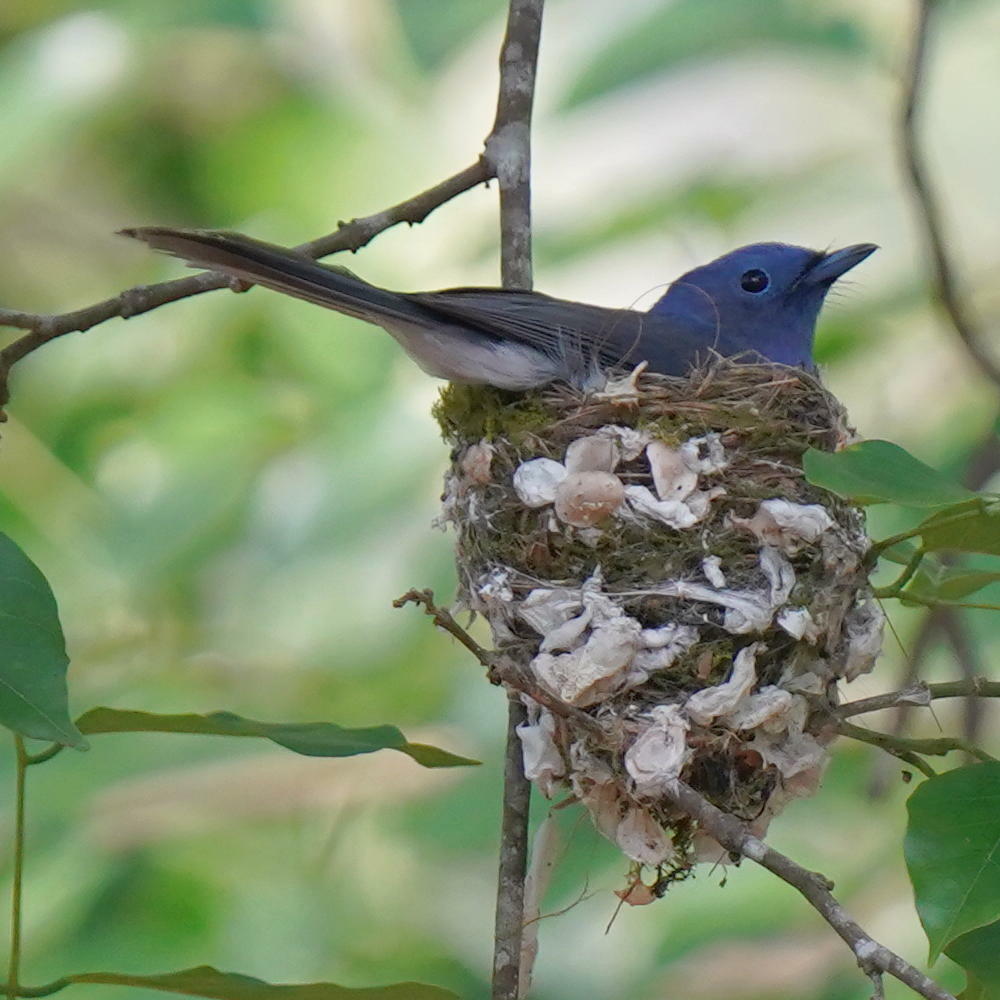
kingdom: Animalia
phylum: Chordata
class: Aves
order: Passeriformes
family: Monarchidae
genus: Hypothymis
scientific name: Hypothymis azurea
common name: Black-naped monarch
